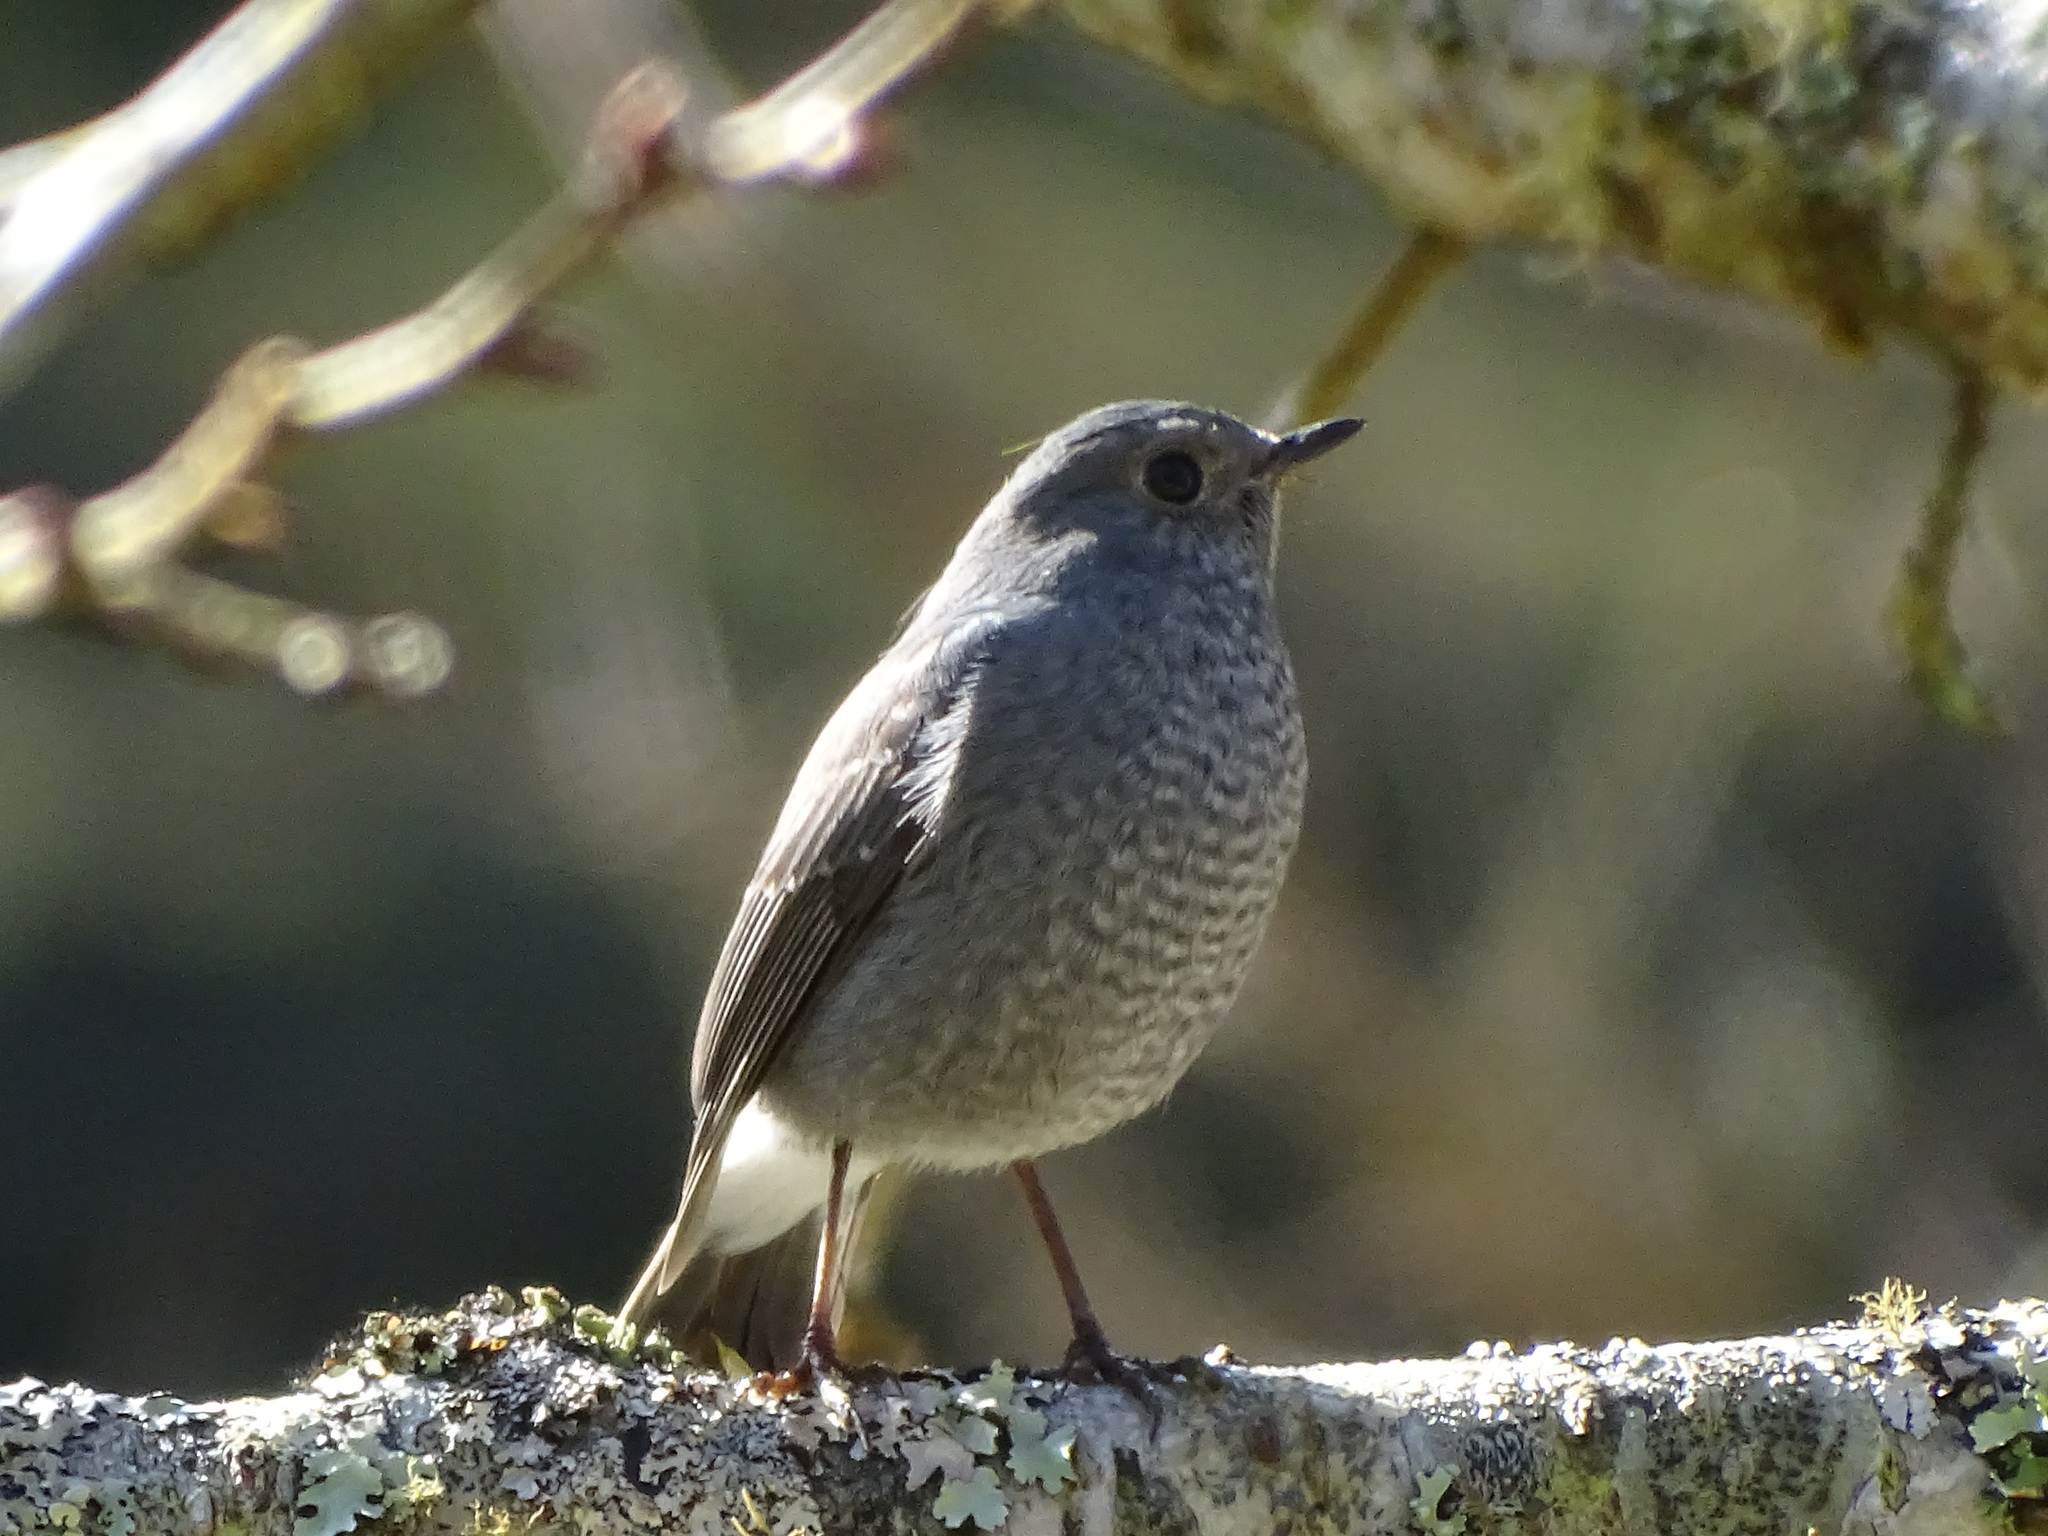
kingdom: Animalia
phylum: Chordata
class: Aves
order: Passeriformes
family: Muscicapidae
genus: Phoenicurus
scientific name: Phoenicurus fuliginosus
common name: Plumbeous water redstart
